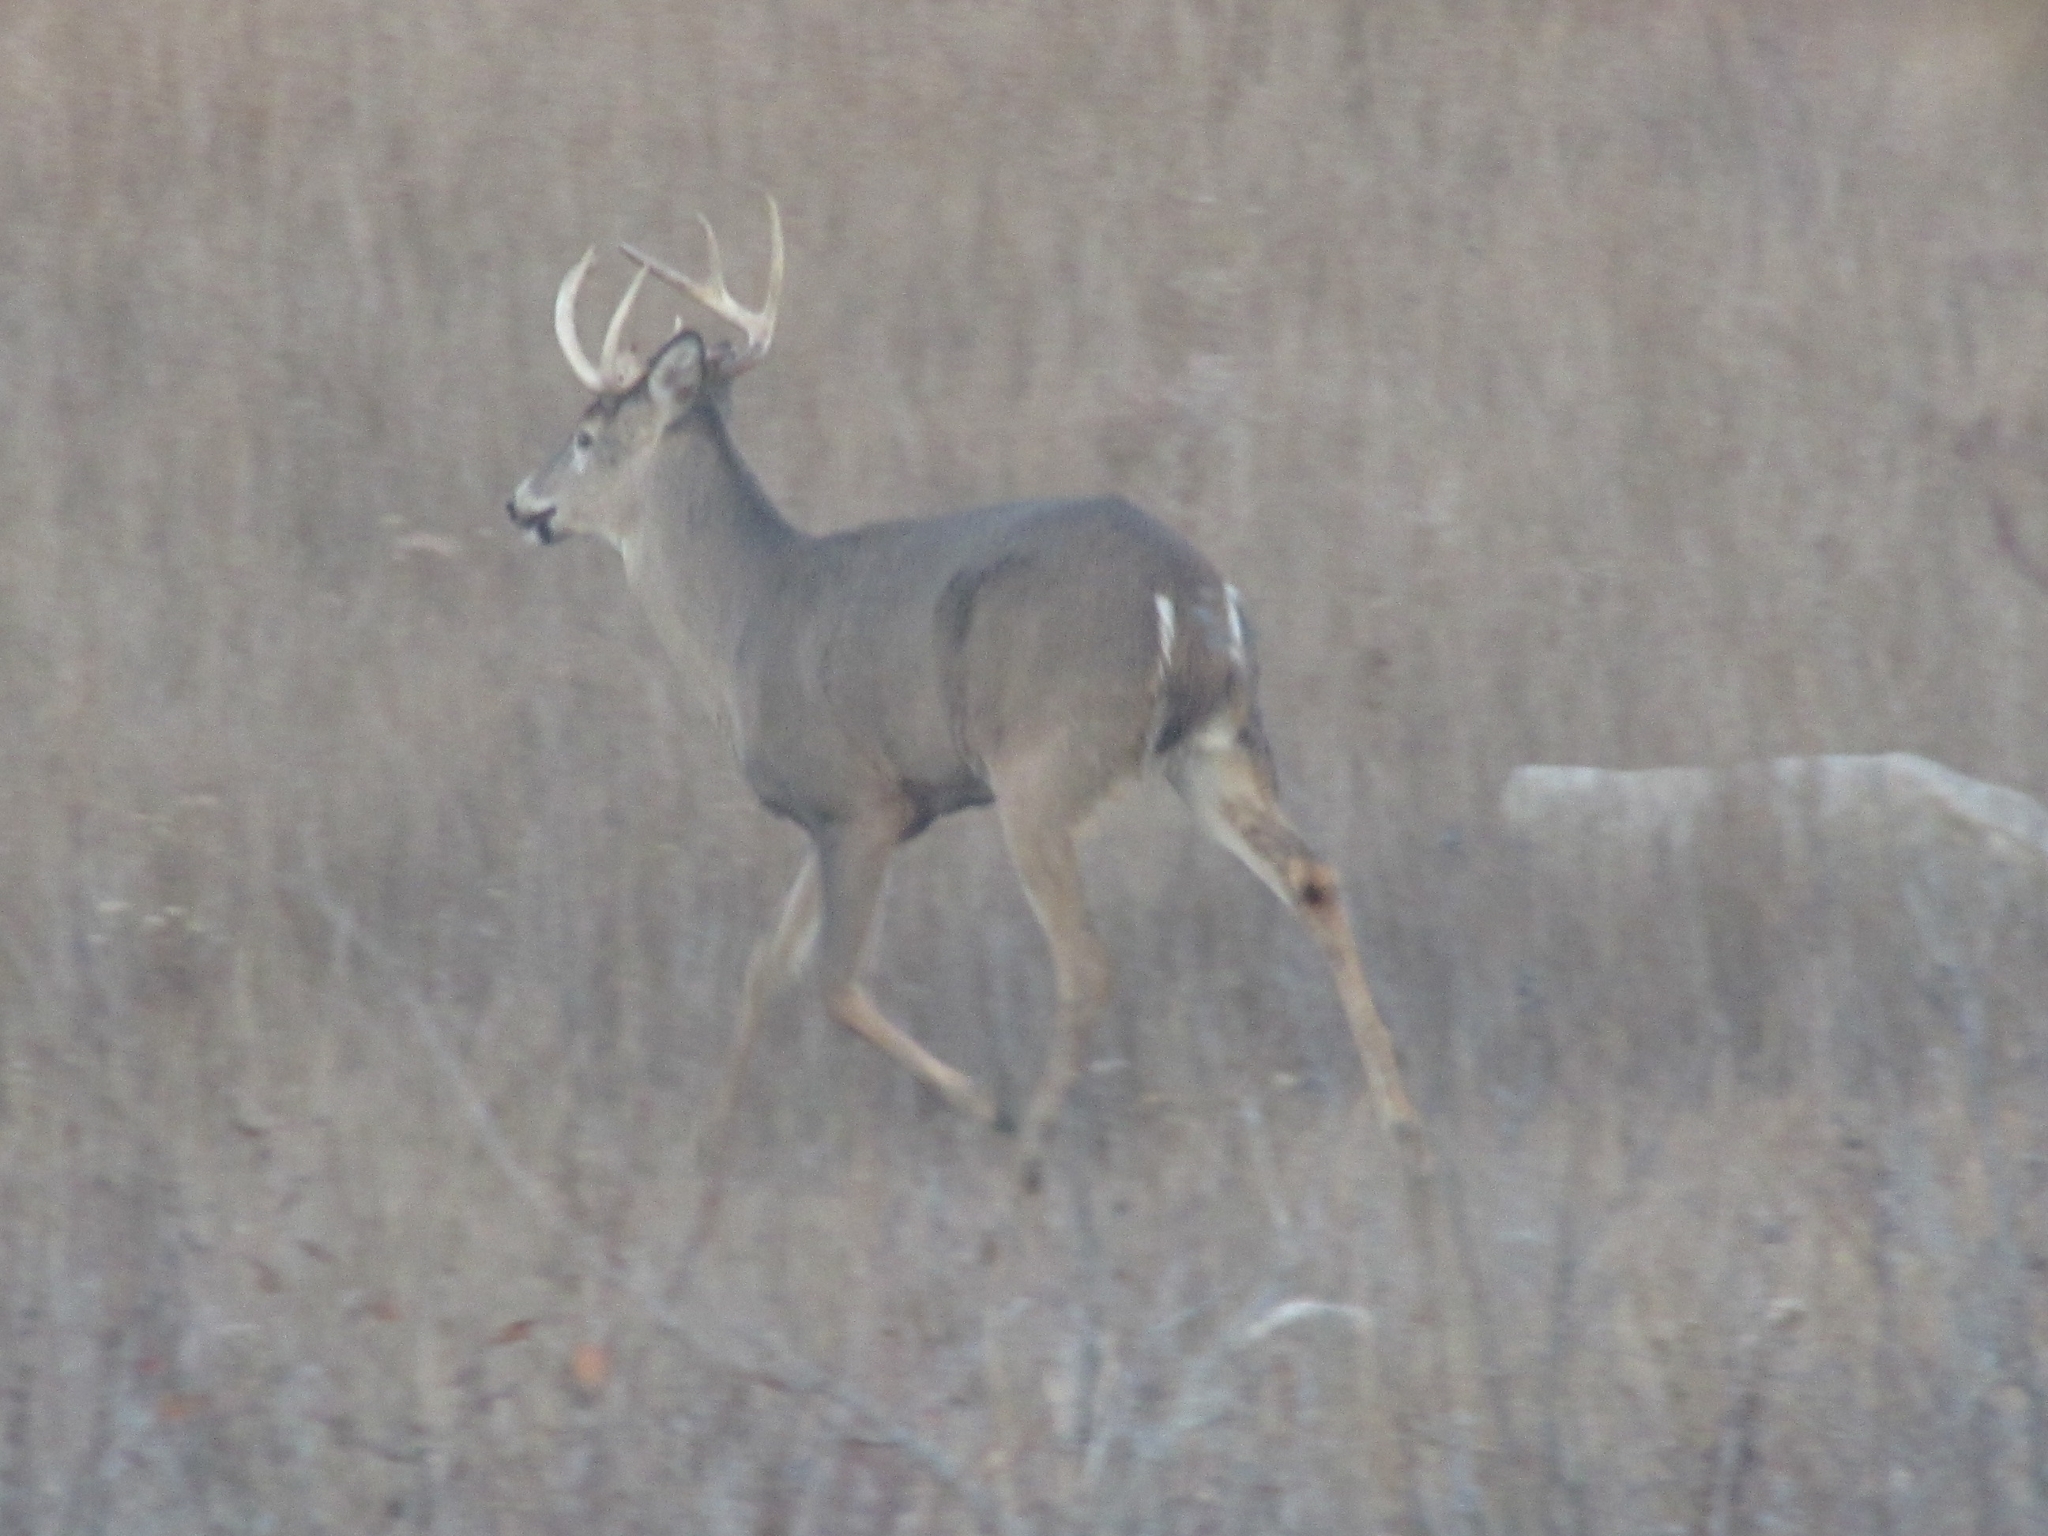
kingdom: Animalia
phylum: Chordata
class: Mammalia
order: Artiodactyla
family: Cervidae
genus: Odocoileus
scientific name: Odocoileus virginianus
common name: White-tailed deer
